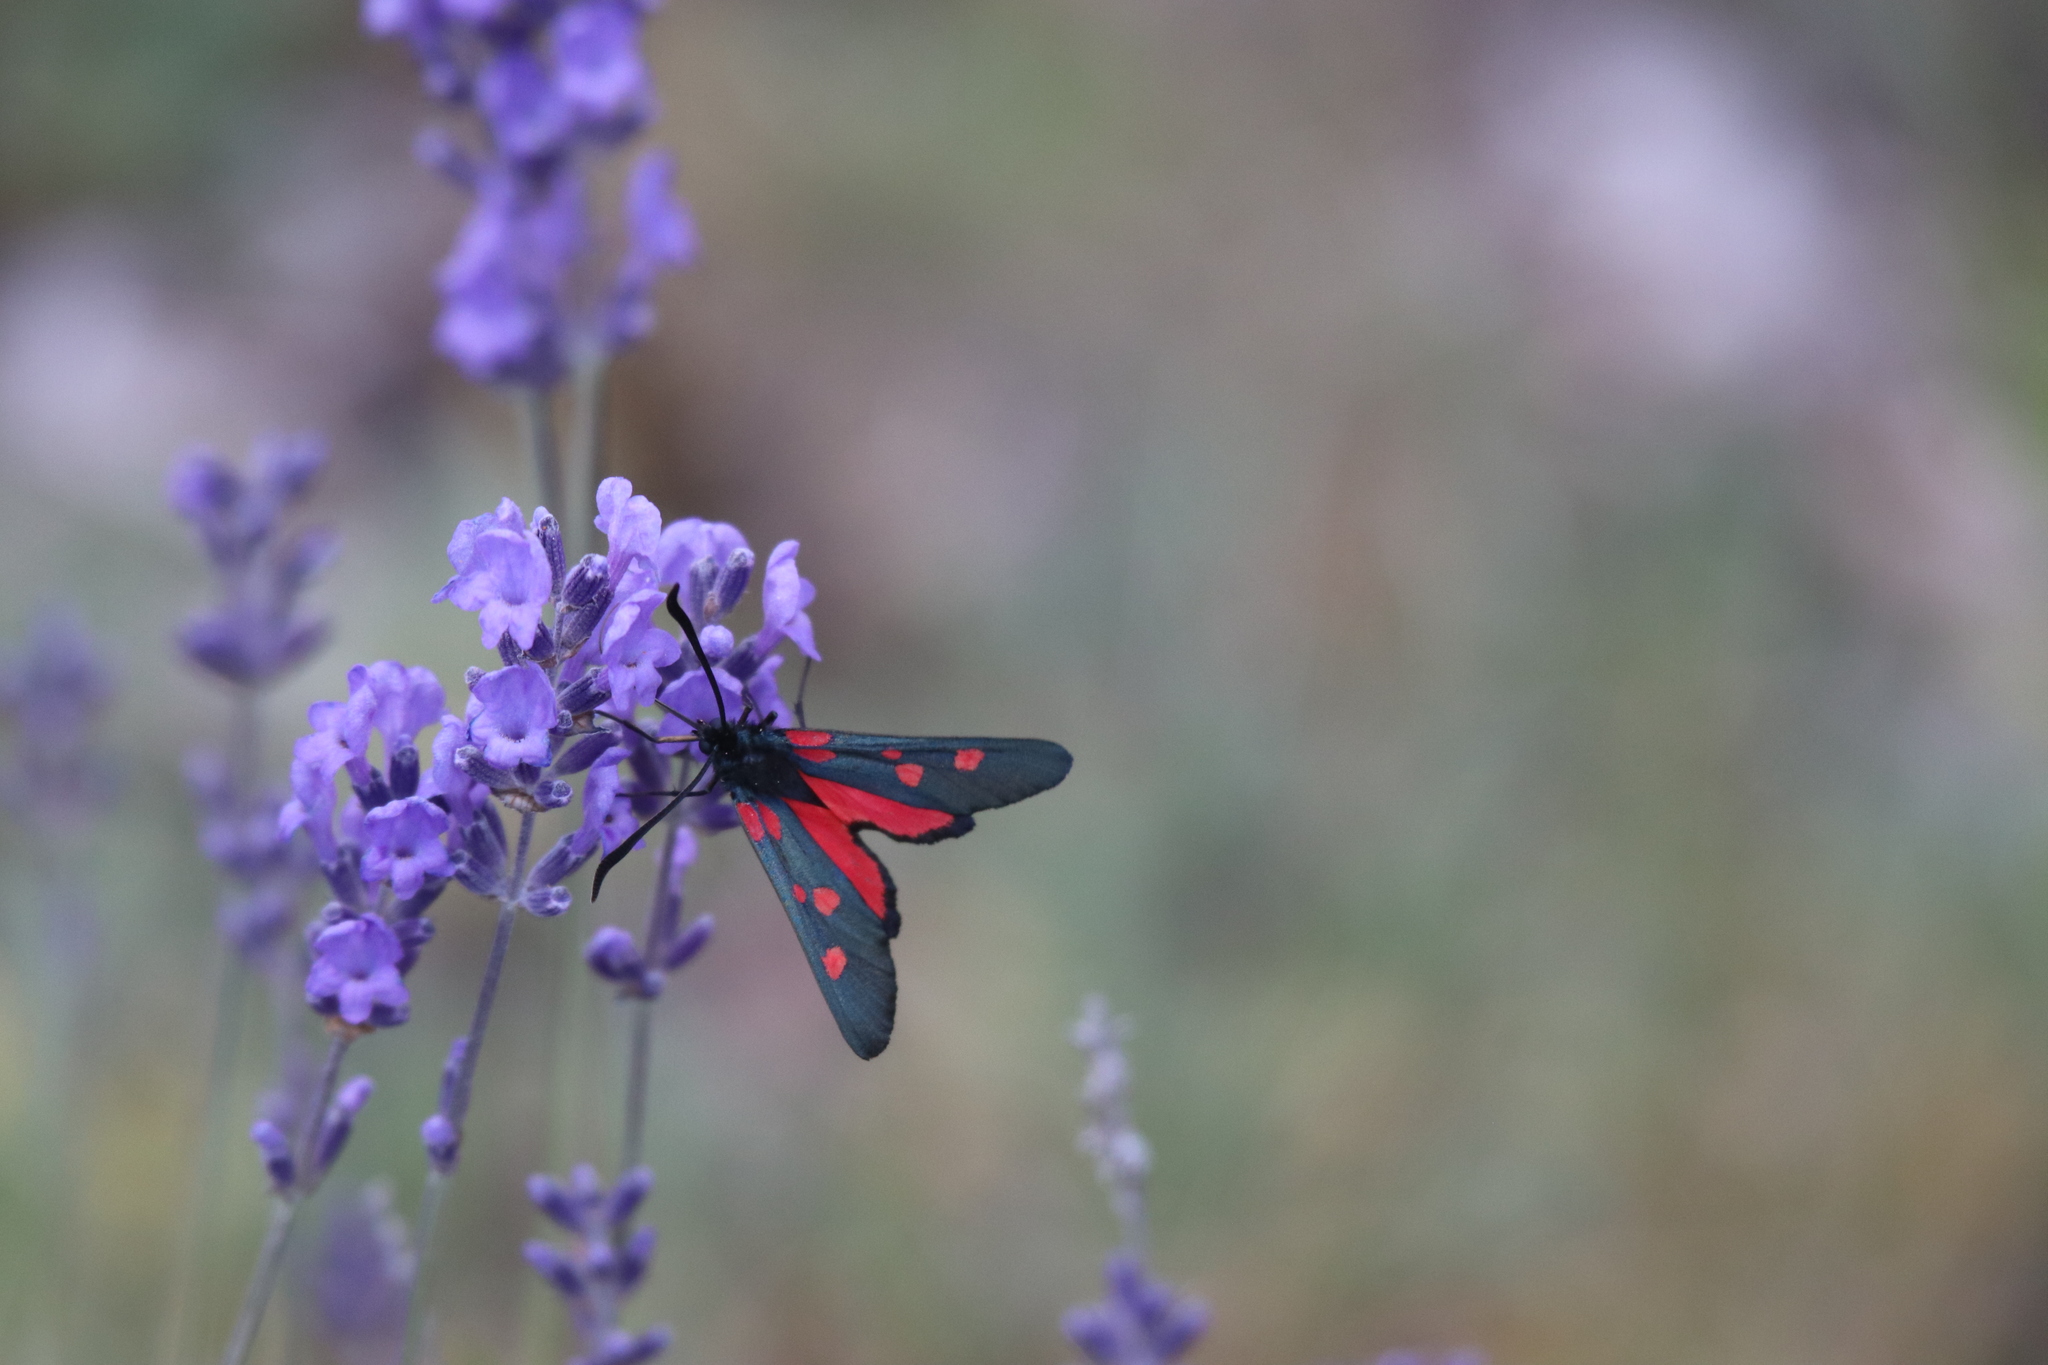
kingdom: Animalia
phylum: Arthropoda
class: Insecta
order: Lepidoptera
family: Zygaenidae
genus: Zygaena
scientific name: Zygaena lonicerae
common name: Narrow-bordered five-spot burnet
